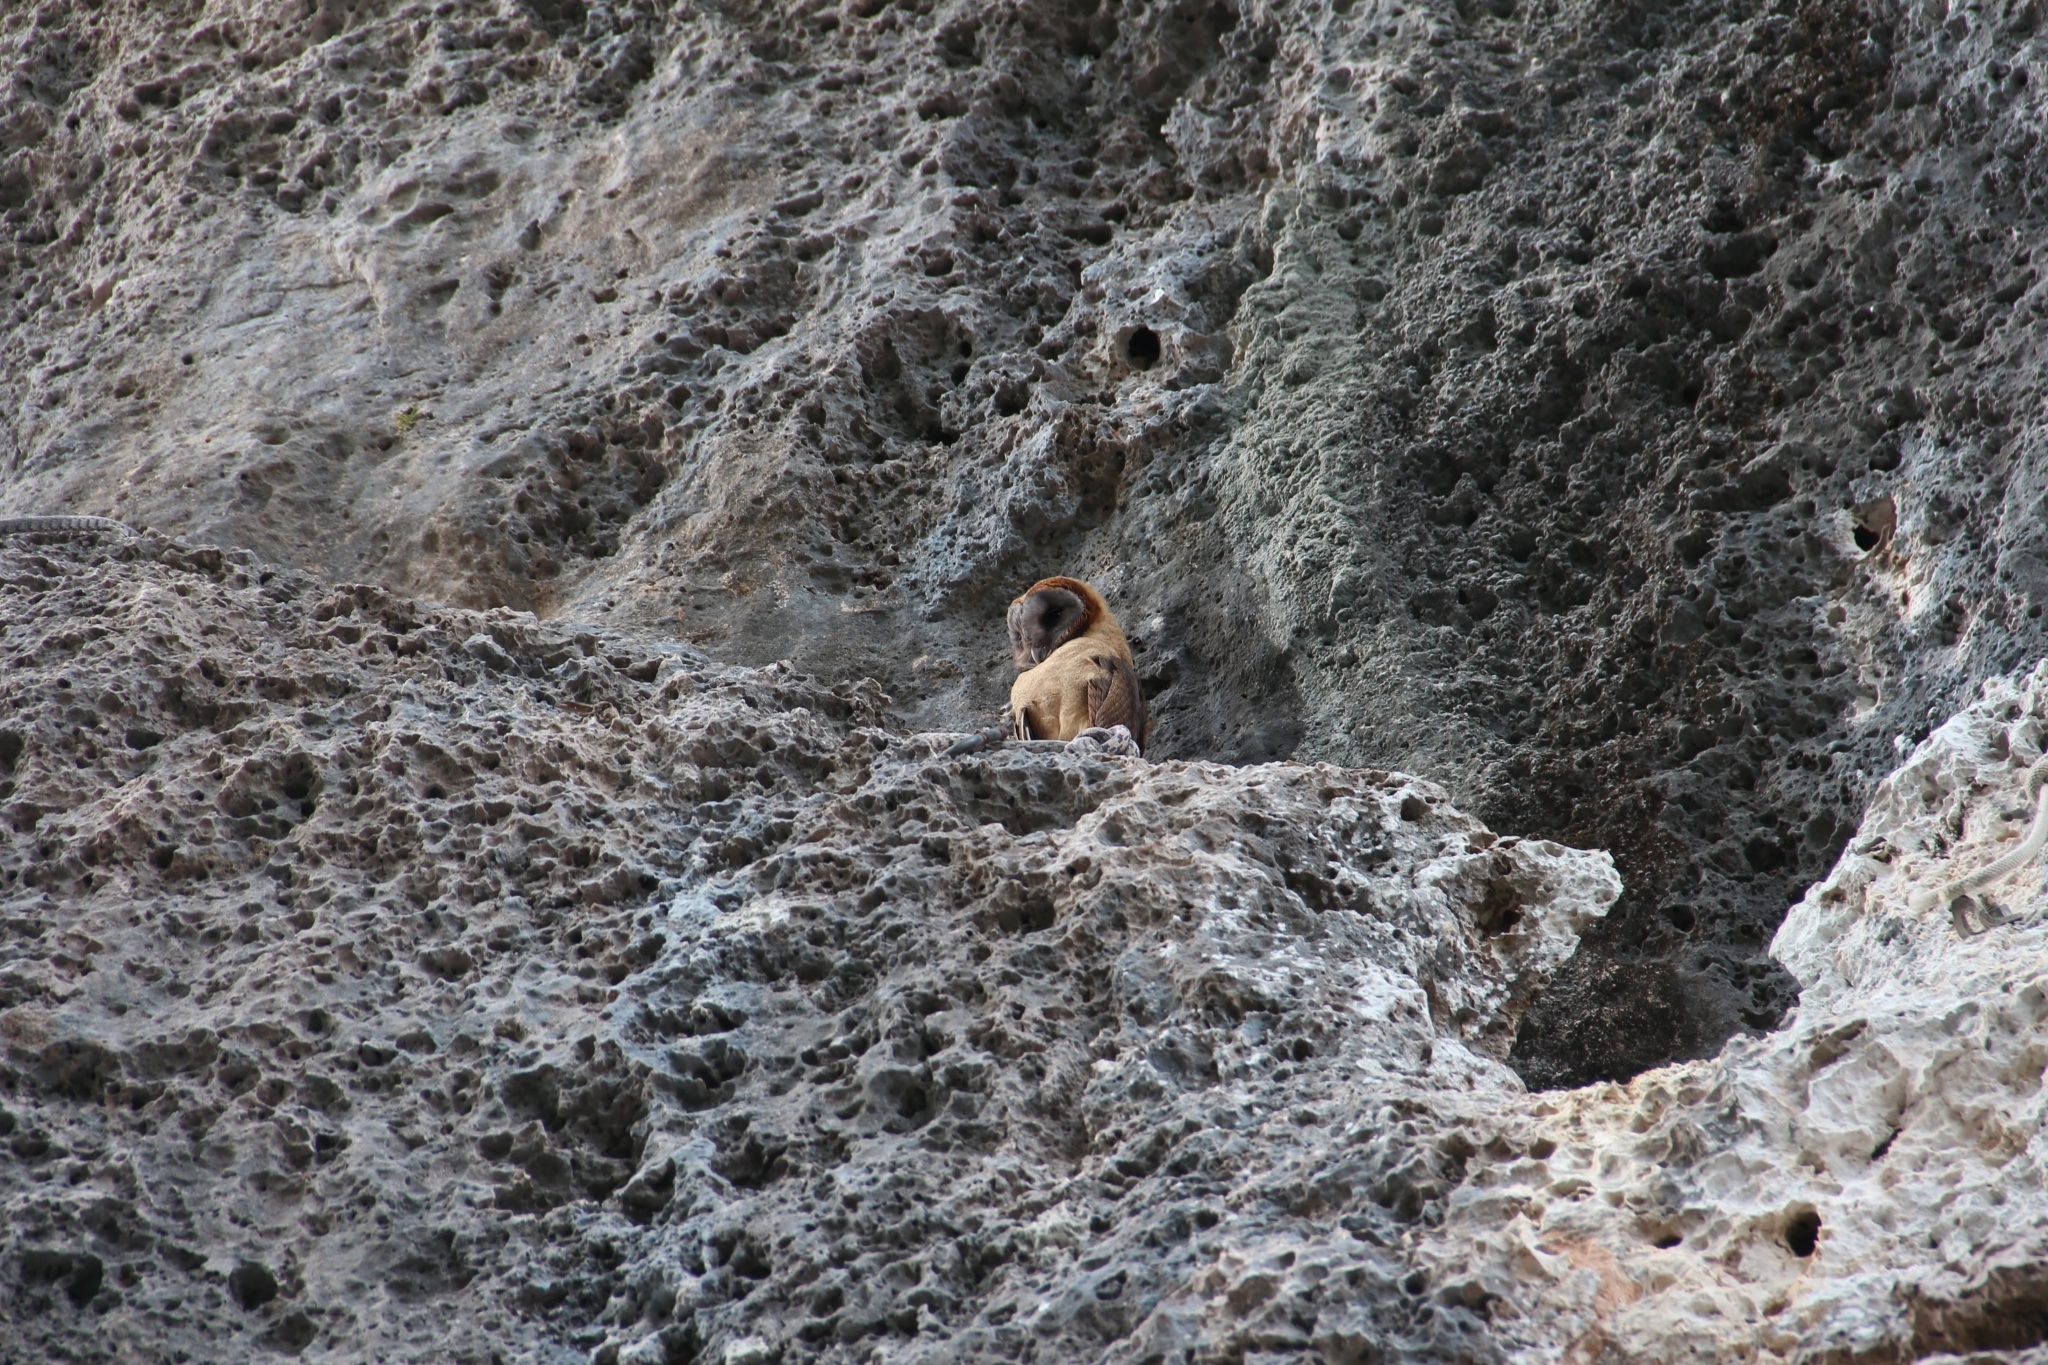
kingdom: Animalia
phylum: Chordata
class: Aves
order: Strigiformes
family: Tytonidae
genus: Tyto
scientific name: Tyto glaucops
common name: Ashy-faced owl
